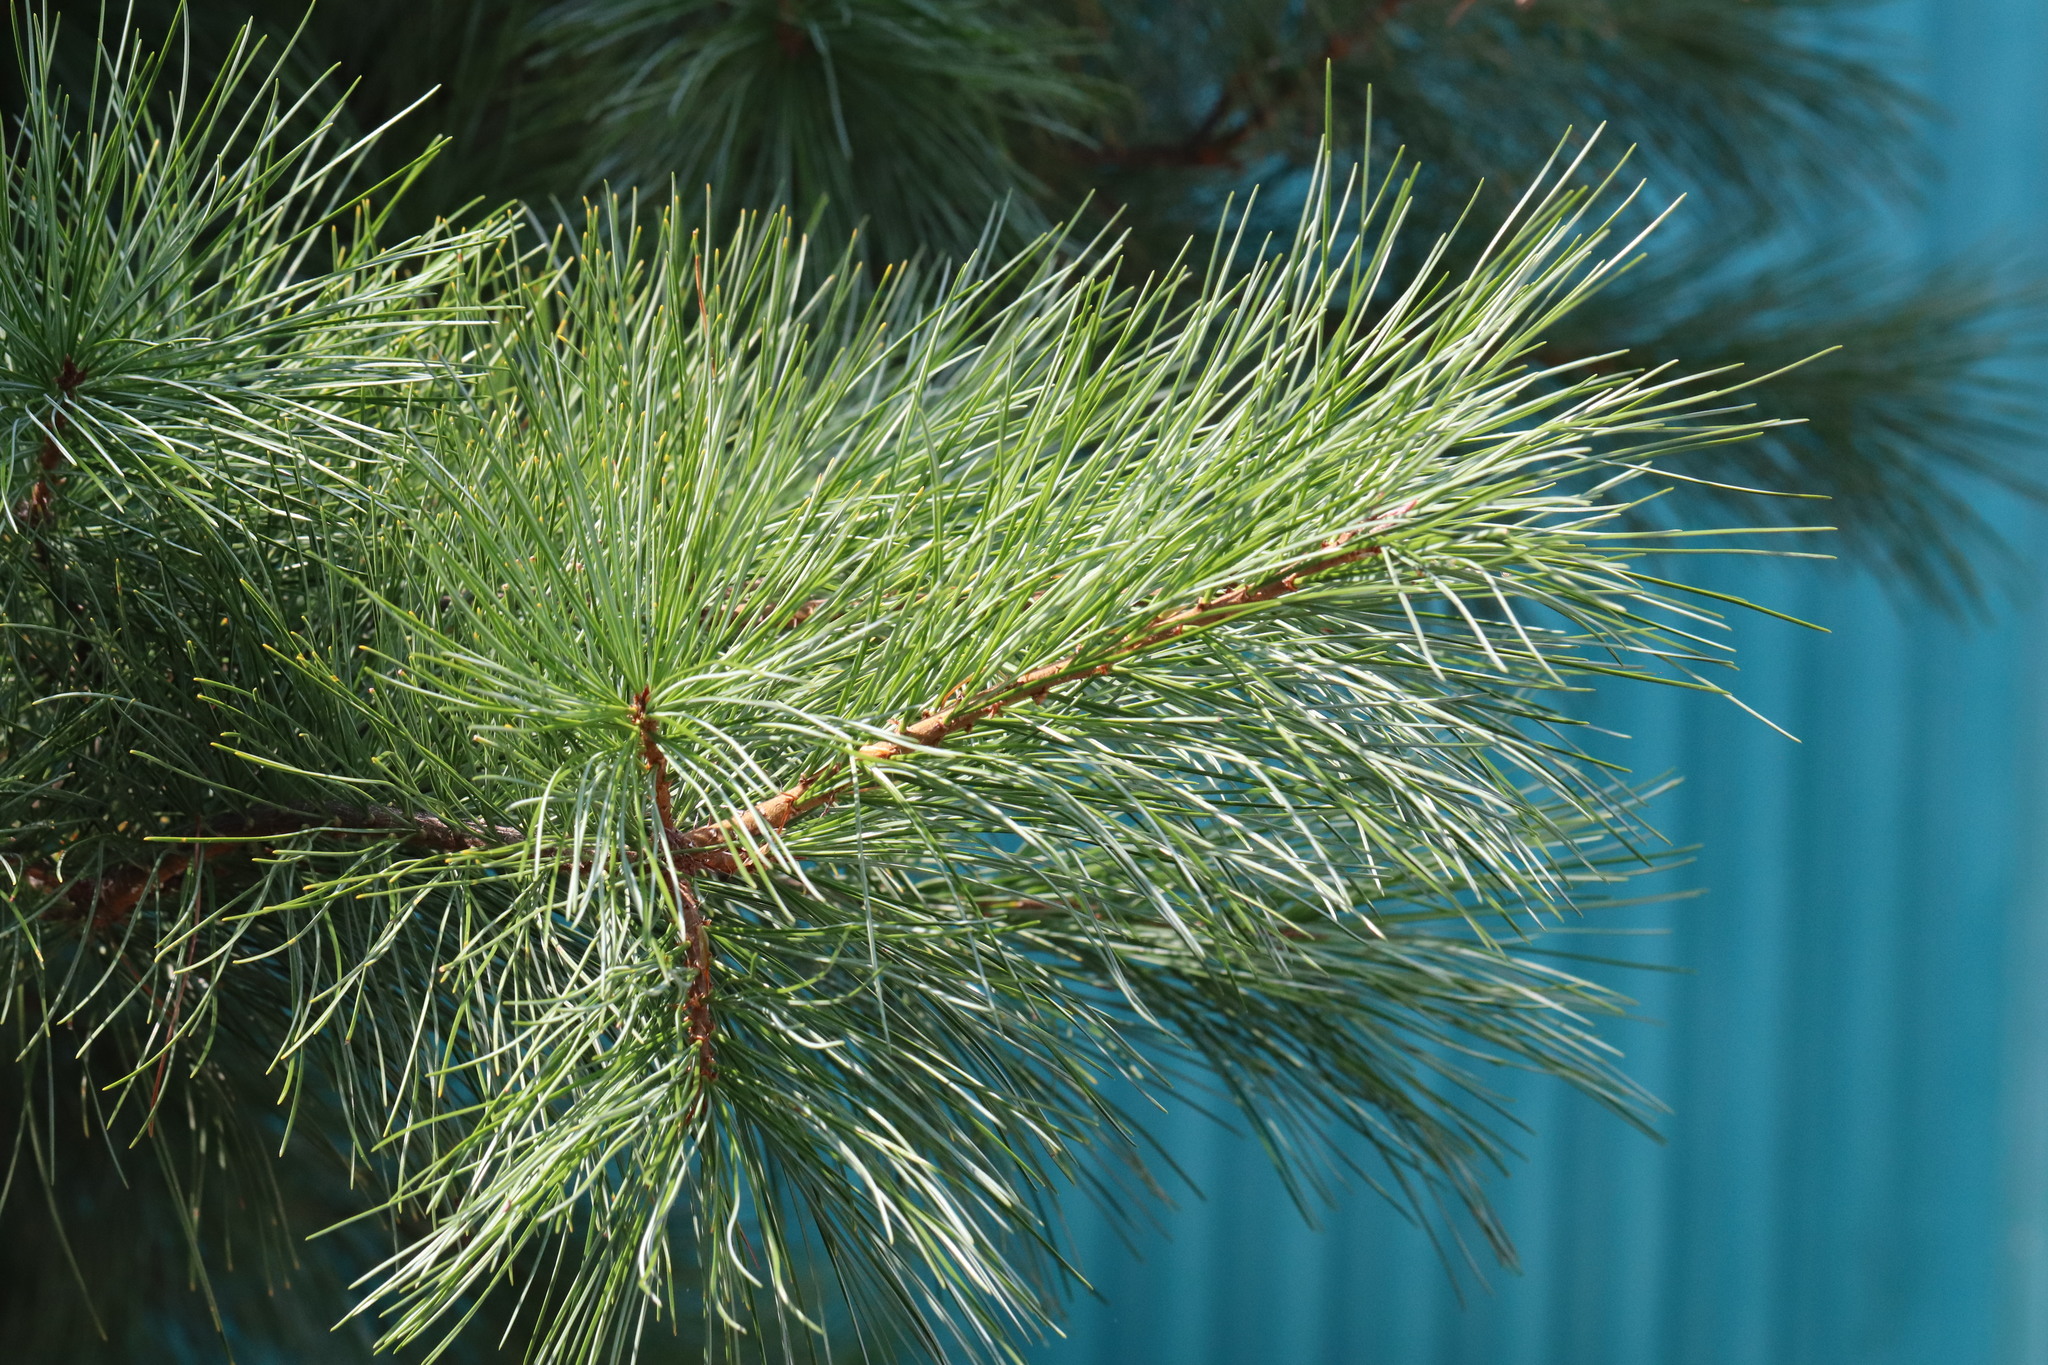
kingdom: Plantae
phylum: Tracheophyta
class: Pinopsida
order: Pinales
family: Pinaceae
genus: Pinus
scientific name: Pinus koraiensis
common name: Korean pine
